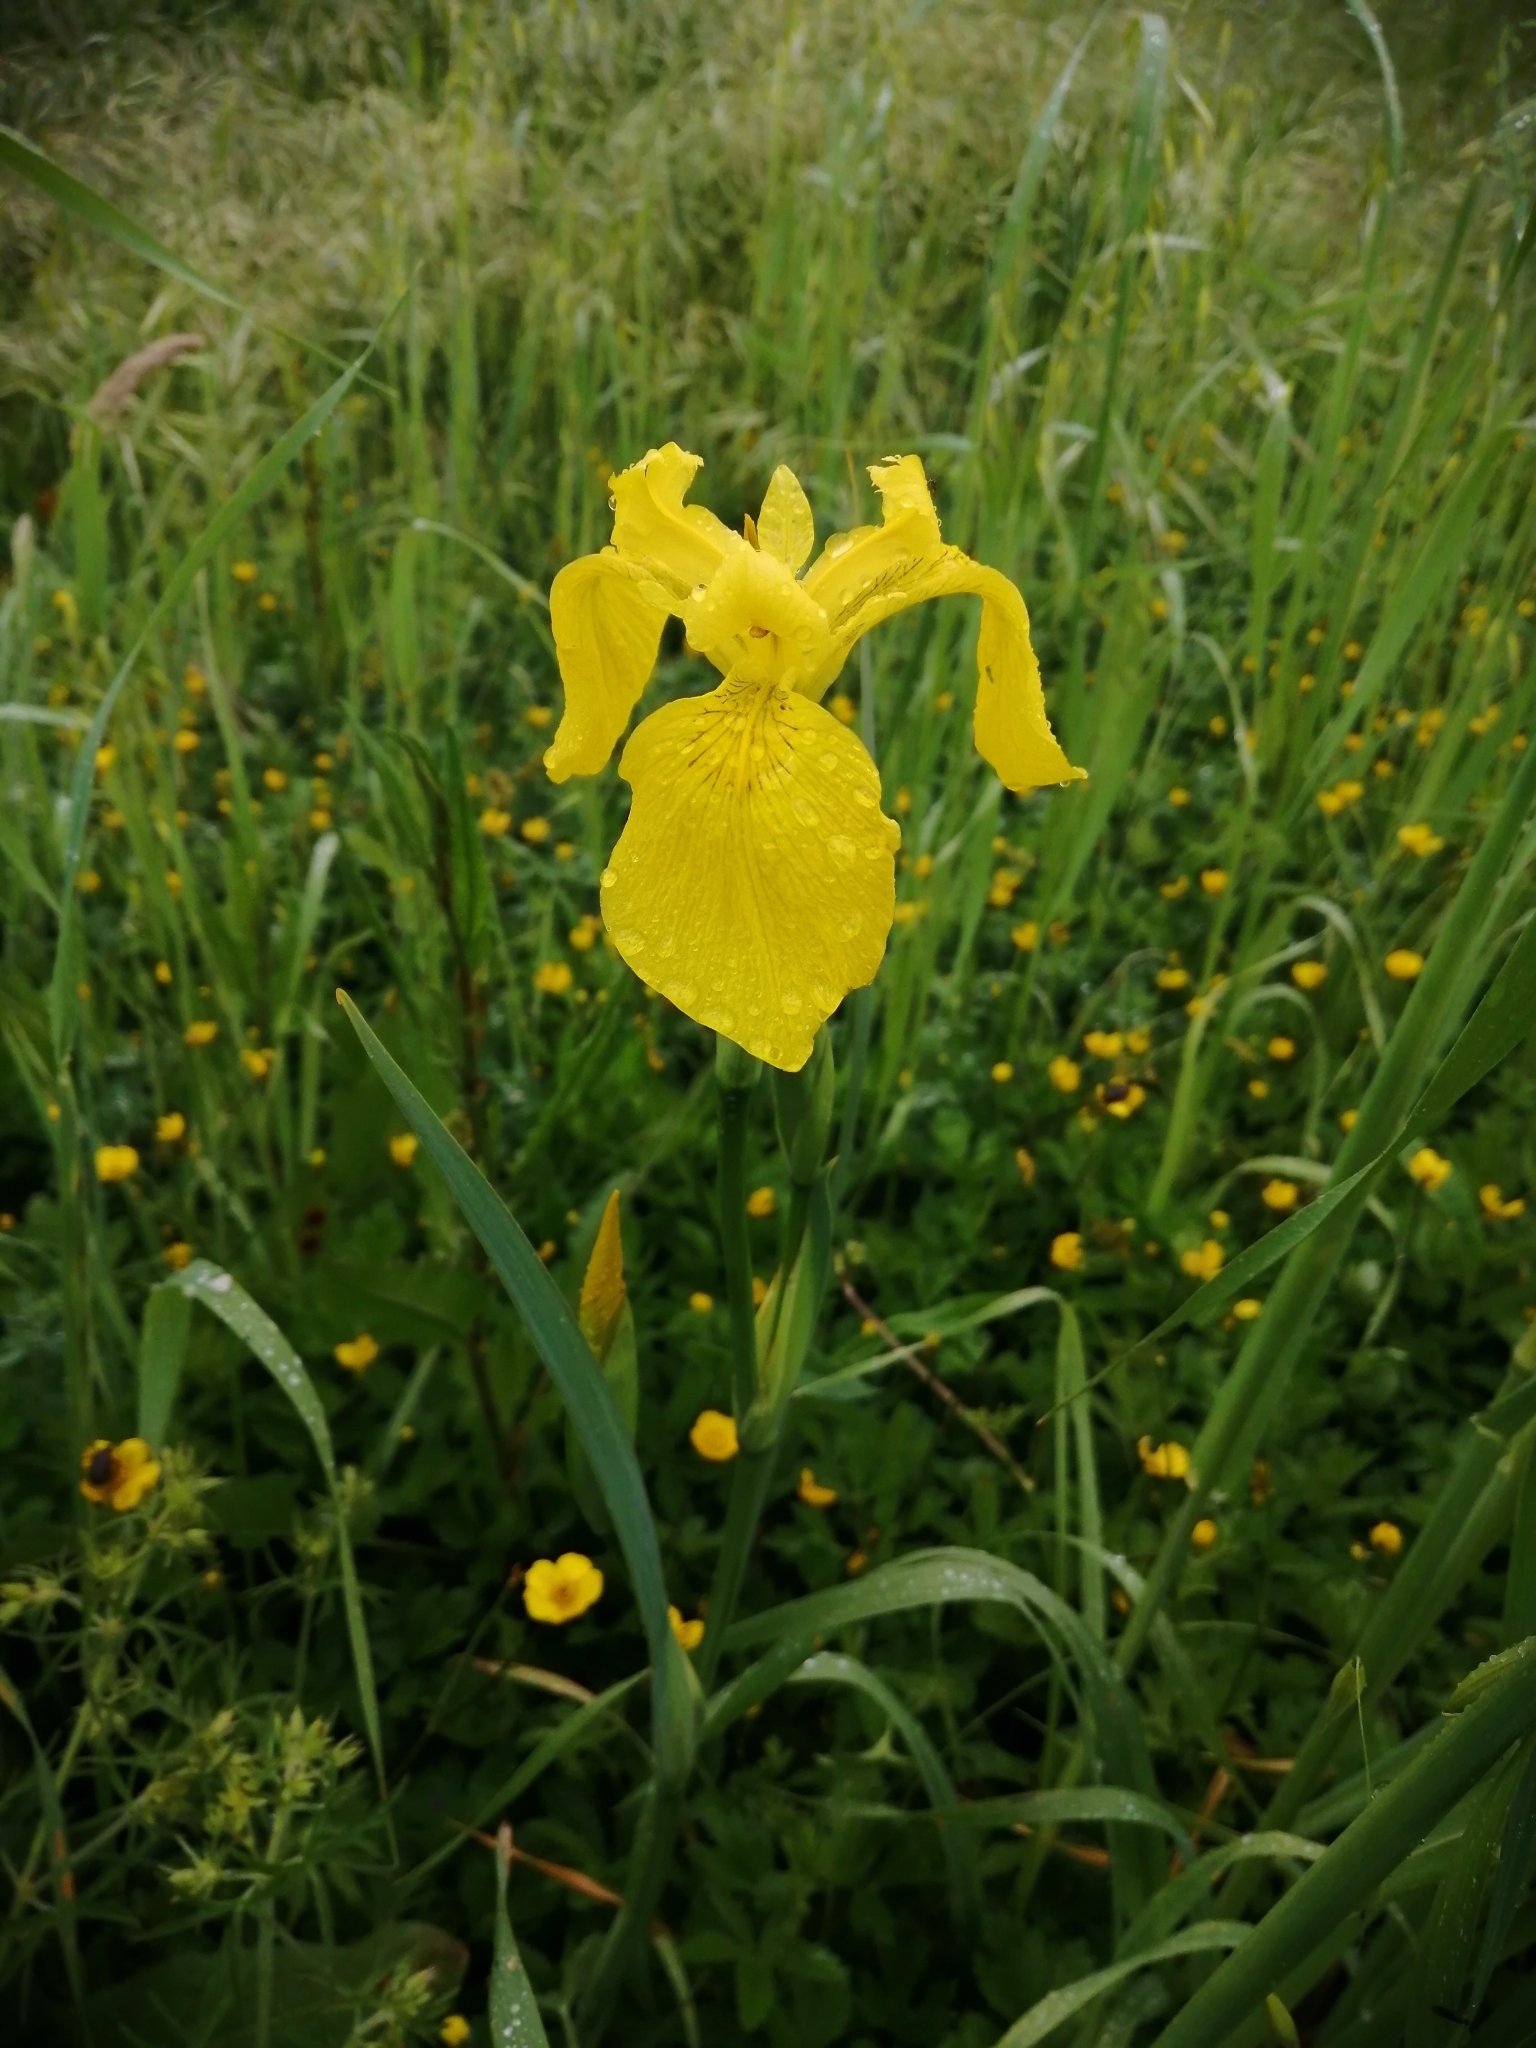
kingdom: Plantae
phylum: Tracheophyta
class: Liliopsida
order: Asparagales
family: Iridaceae
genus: Iris
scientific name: Iris pseudacorus
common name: Yellow flag
